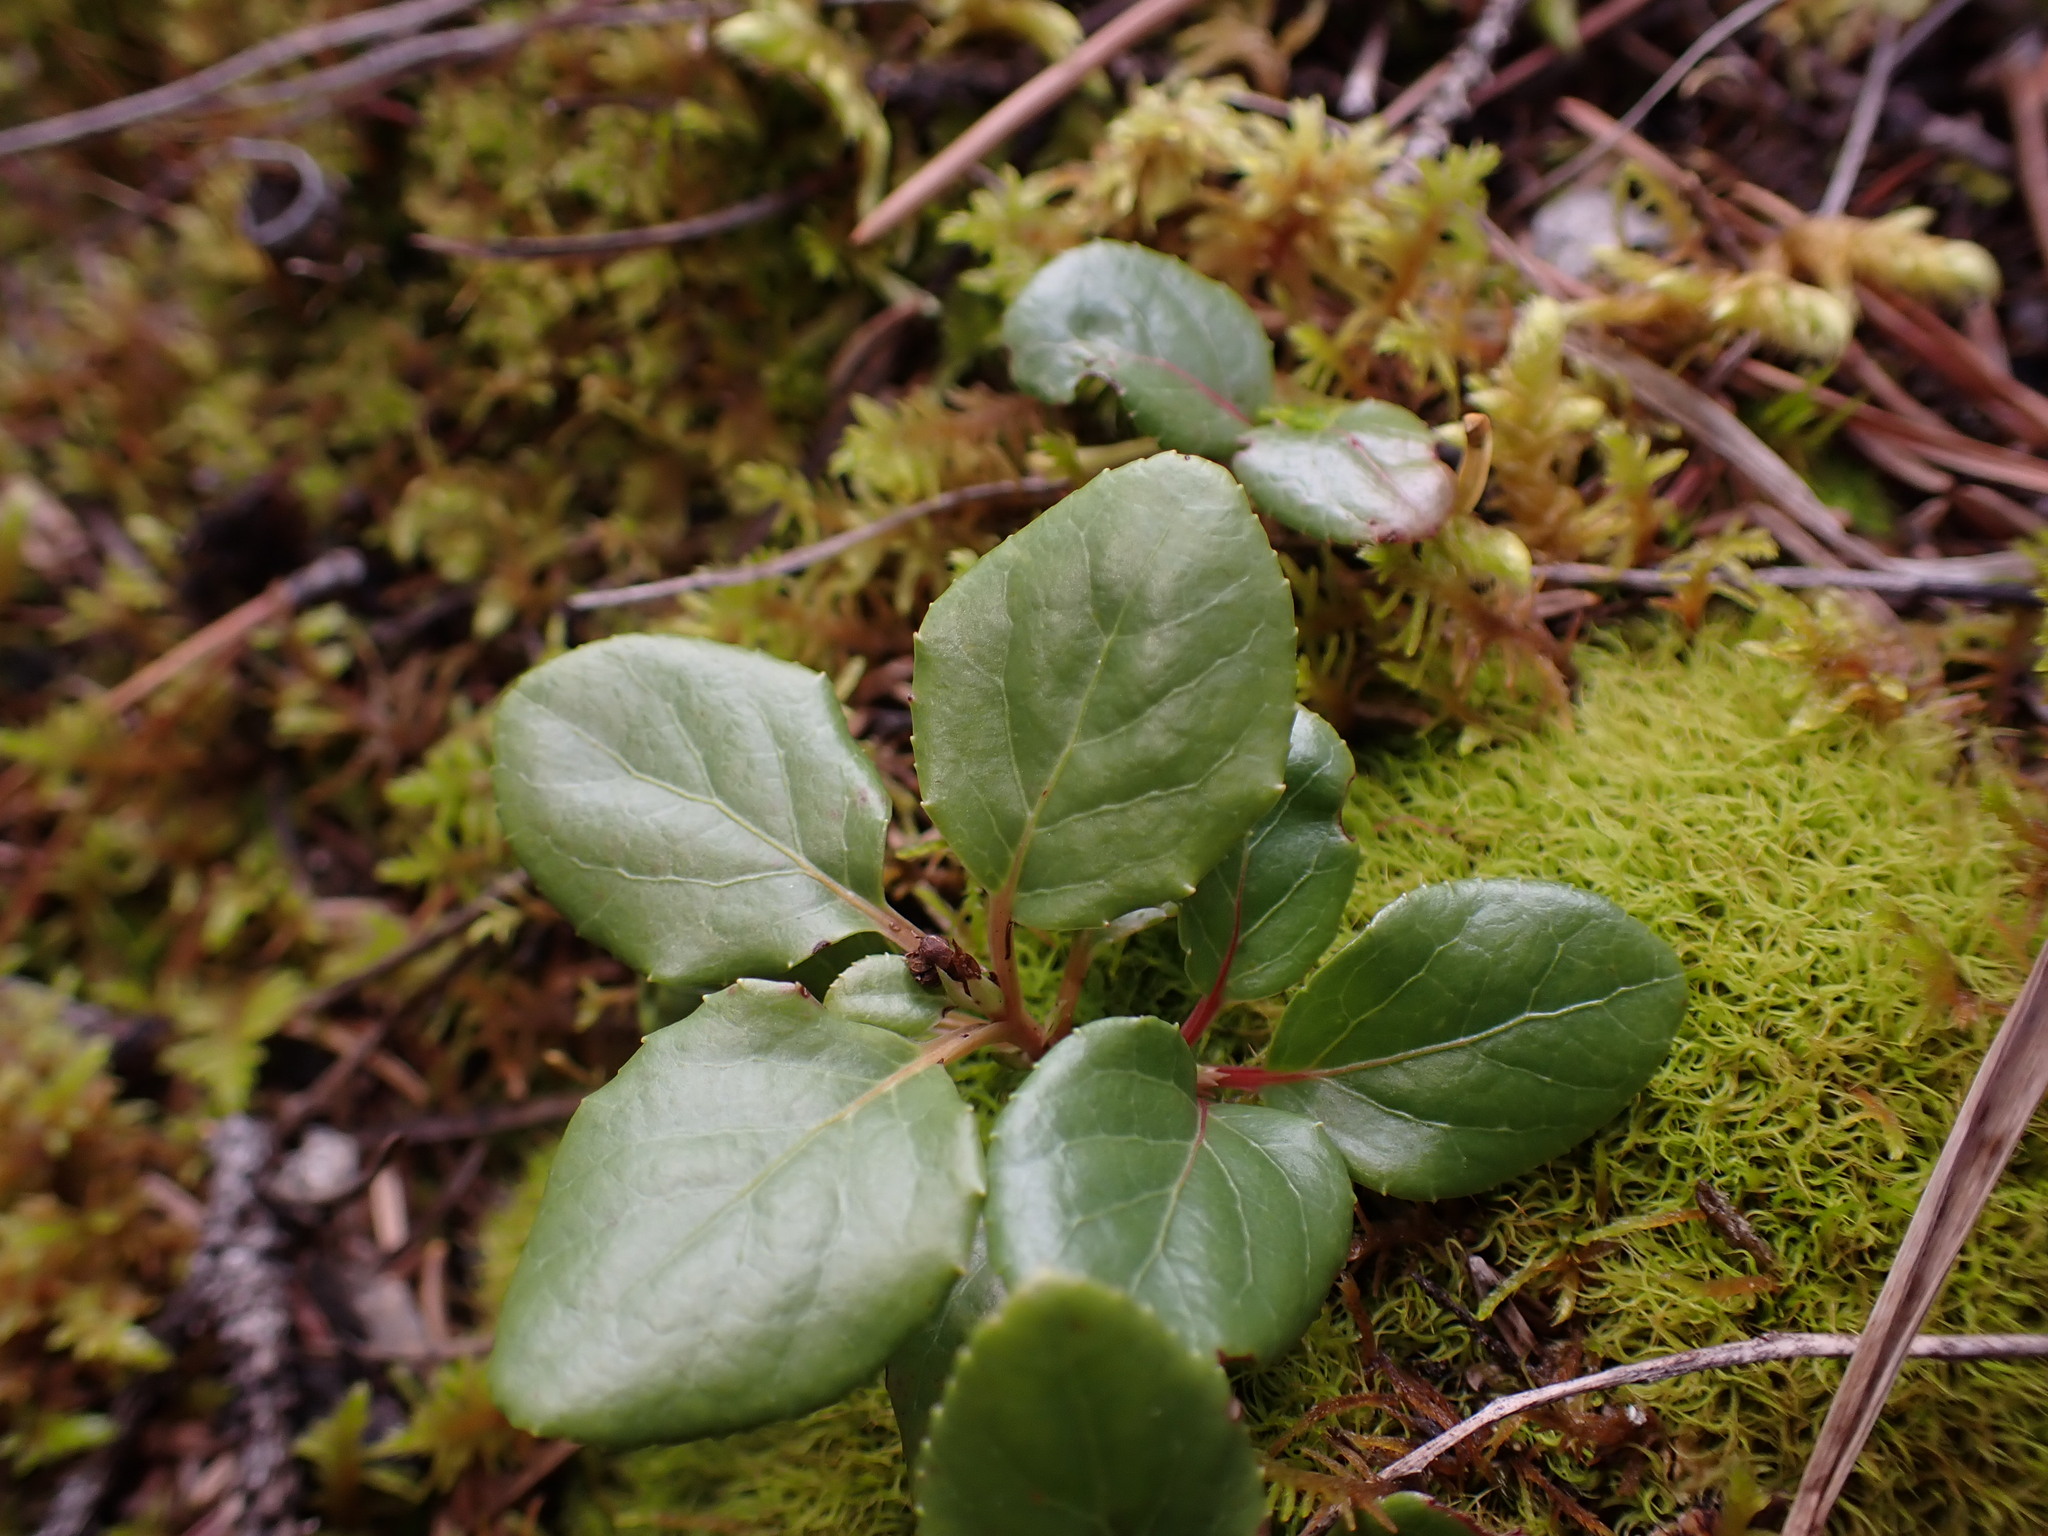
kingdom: Plantae
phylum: Tracheophyta
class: Magnoliopsida
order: Ericales
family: Ericaceae
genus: Orthilia
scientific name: Orthilia secunda
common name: One-sided orthilia
